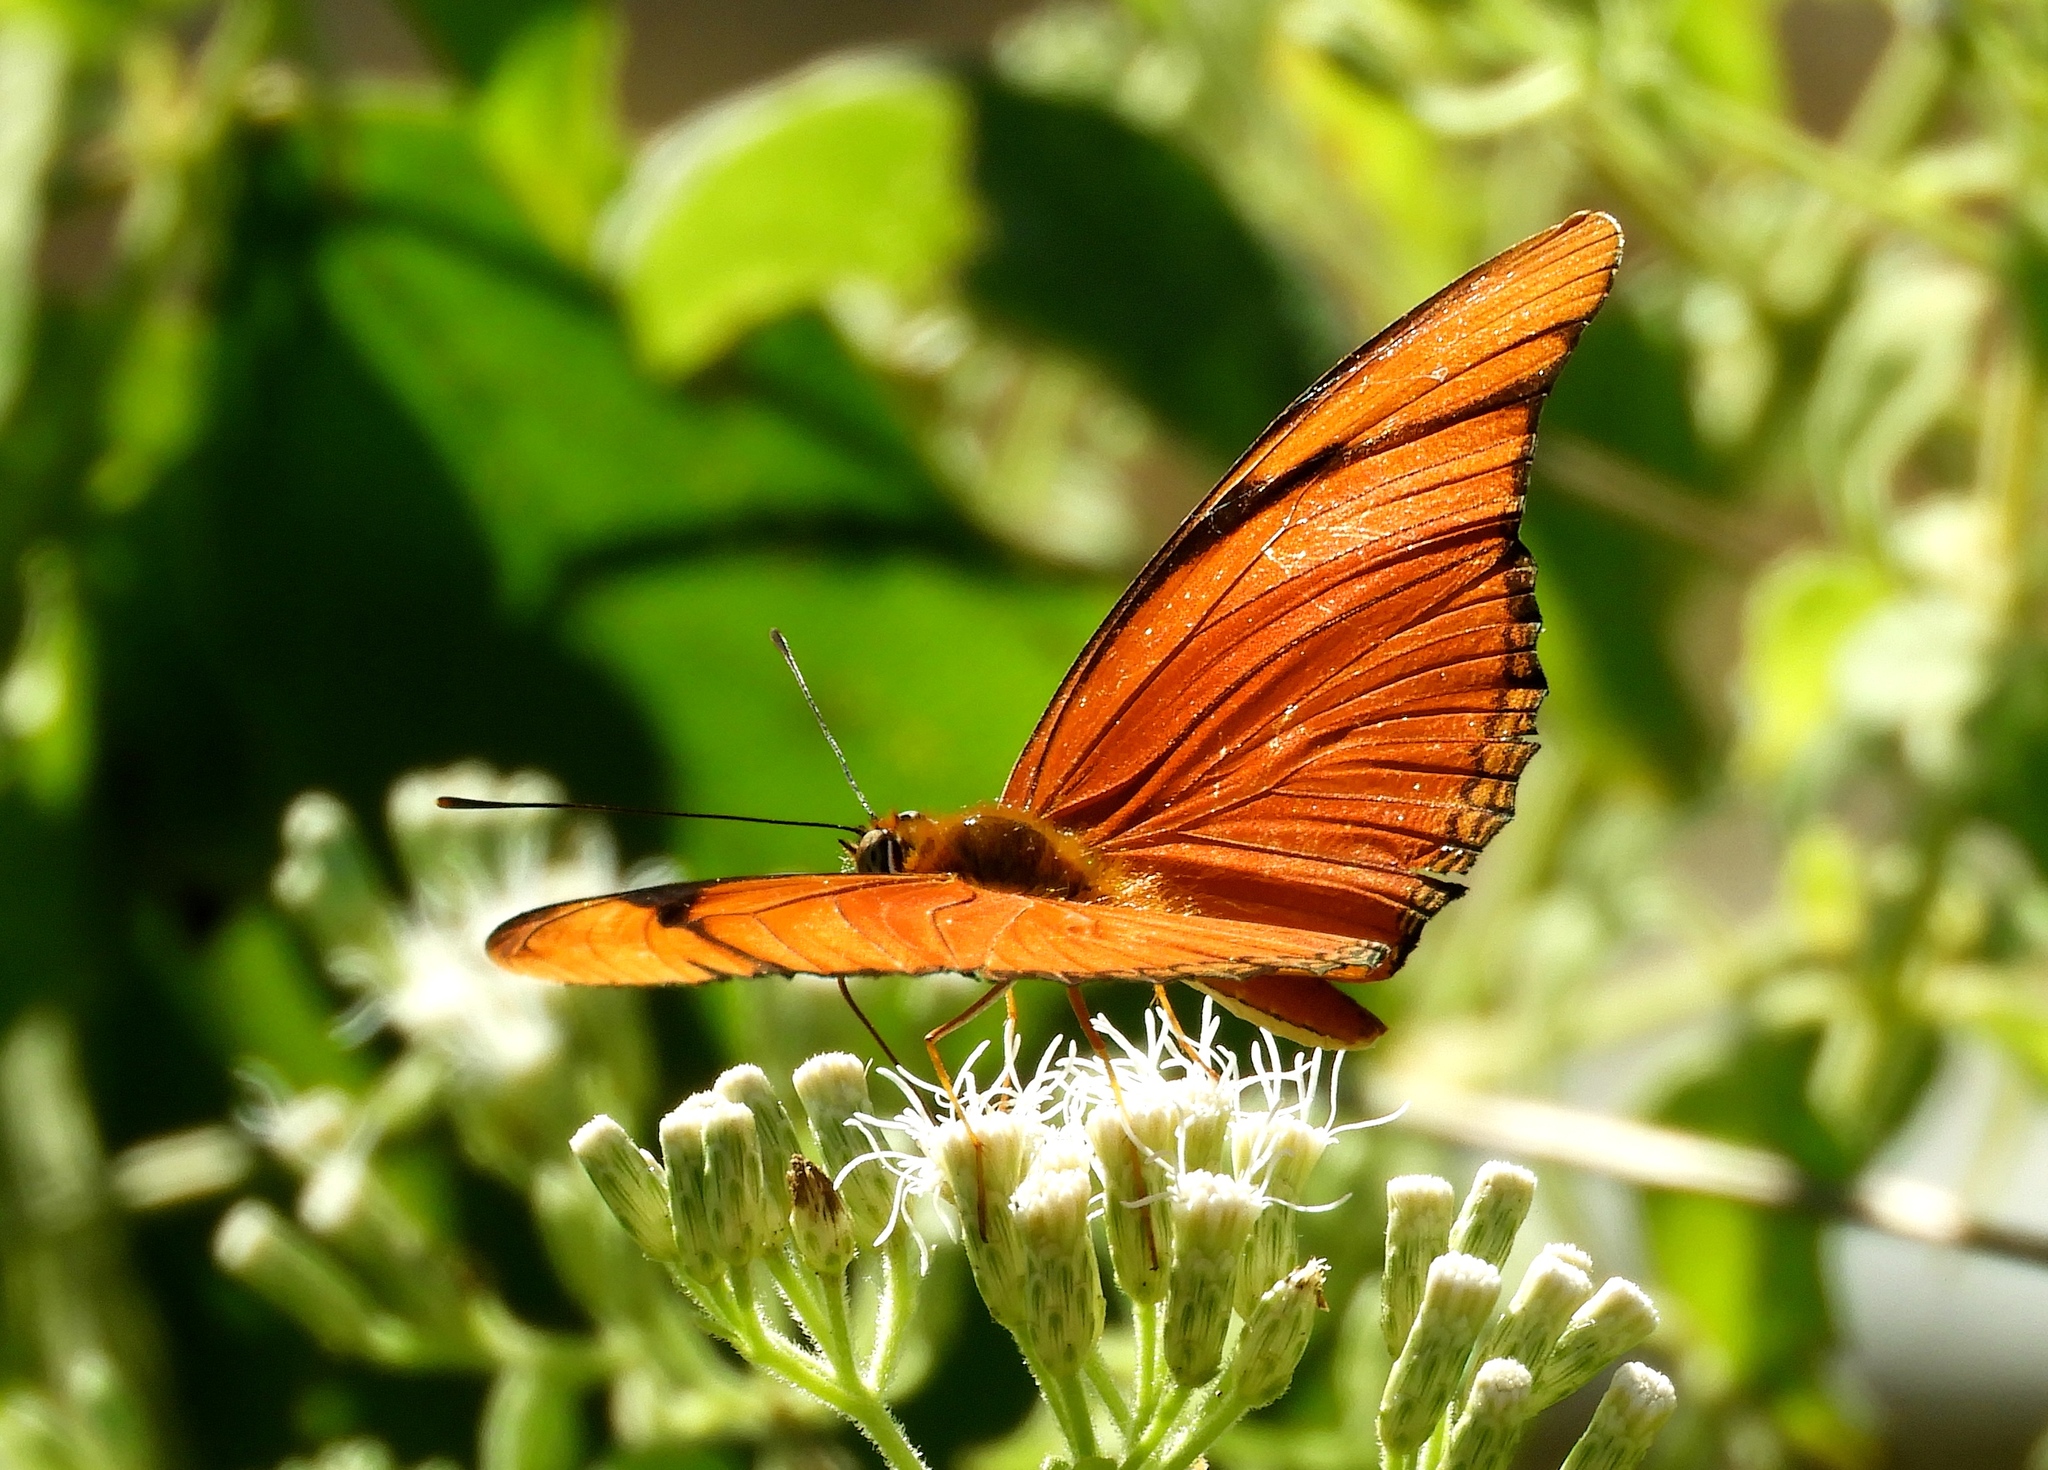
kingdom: Animalia
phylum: Arthropoda
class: Insecta
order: Lepidoptera
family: Nymphalidae
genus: Dryas
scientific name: Dryas iulia
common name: Flambeau
